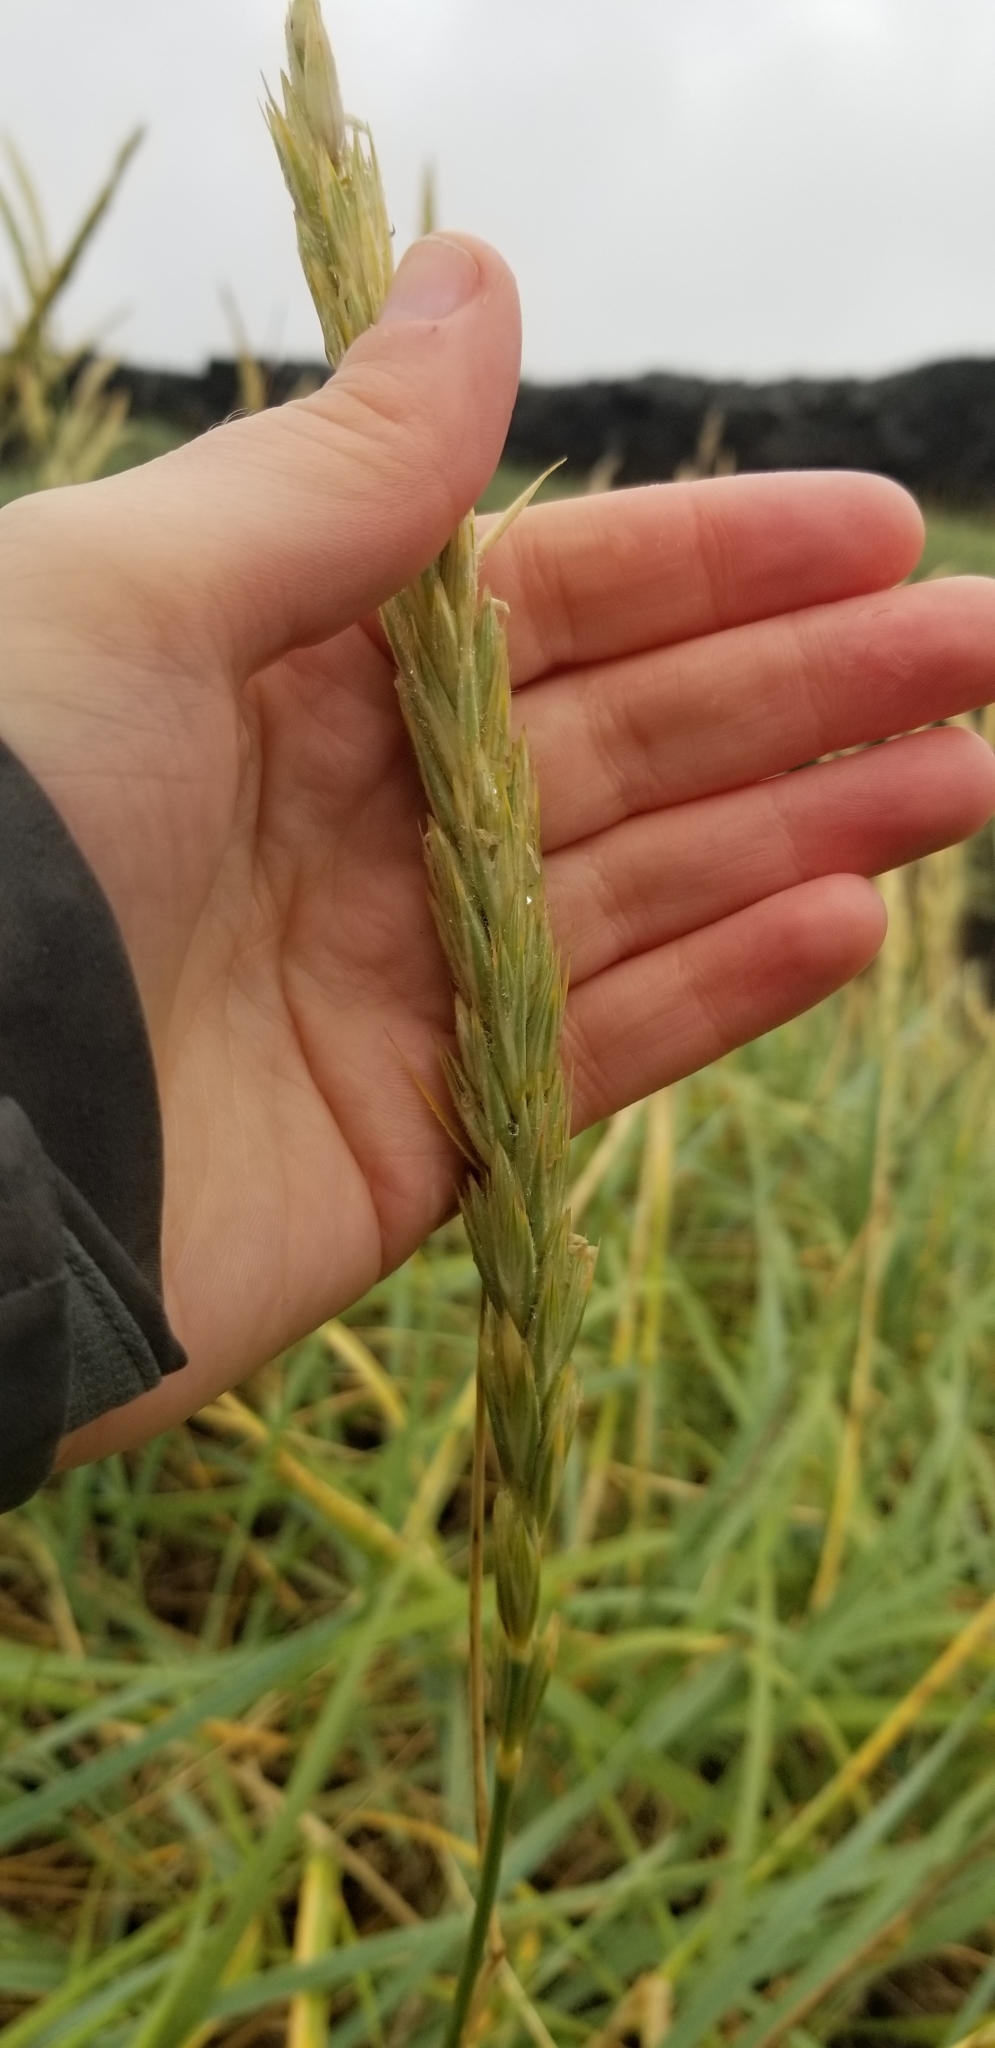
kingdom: Plantae
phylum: Tracheophyta
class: Liliopsida
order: Poales
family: Poaceae
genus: Leymus
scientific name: Leymus arenarius
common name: Lyme-grass
